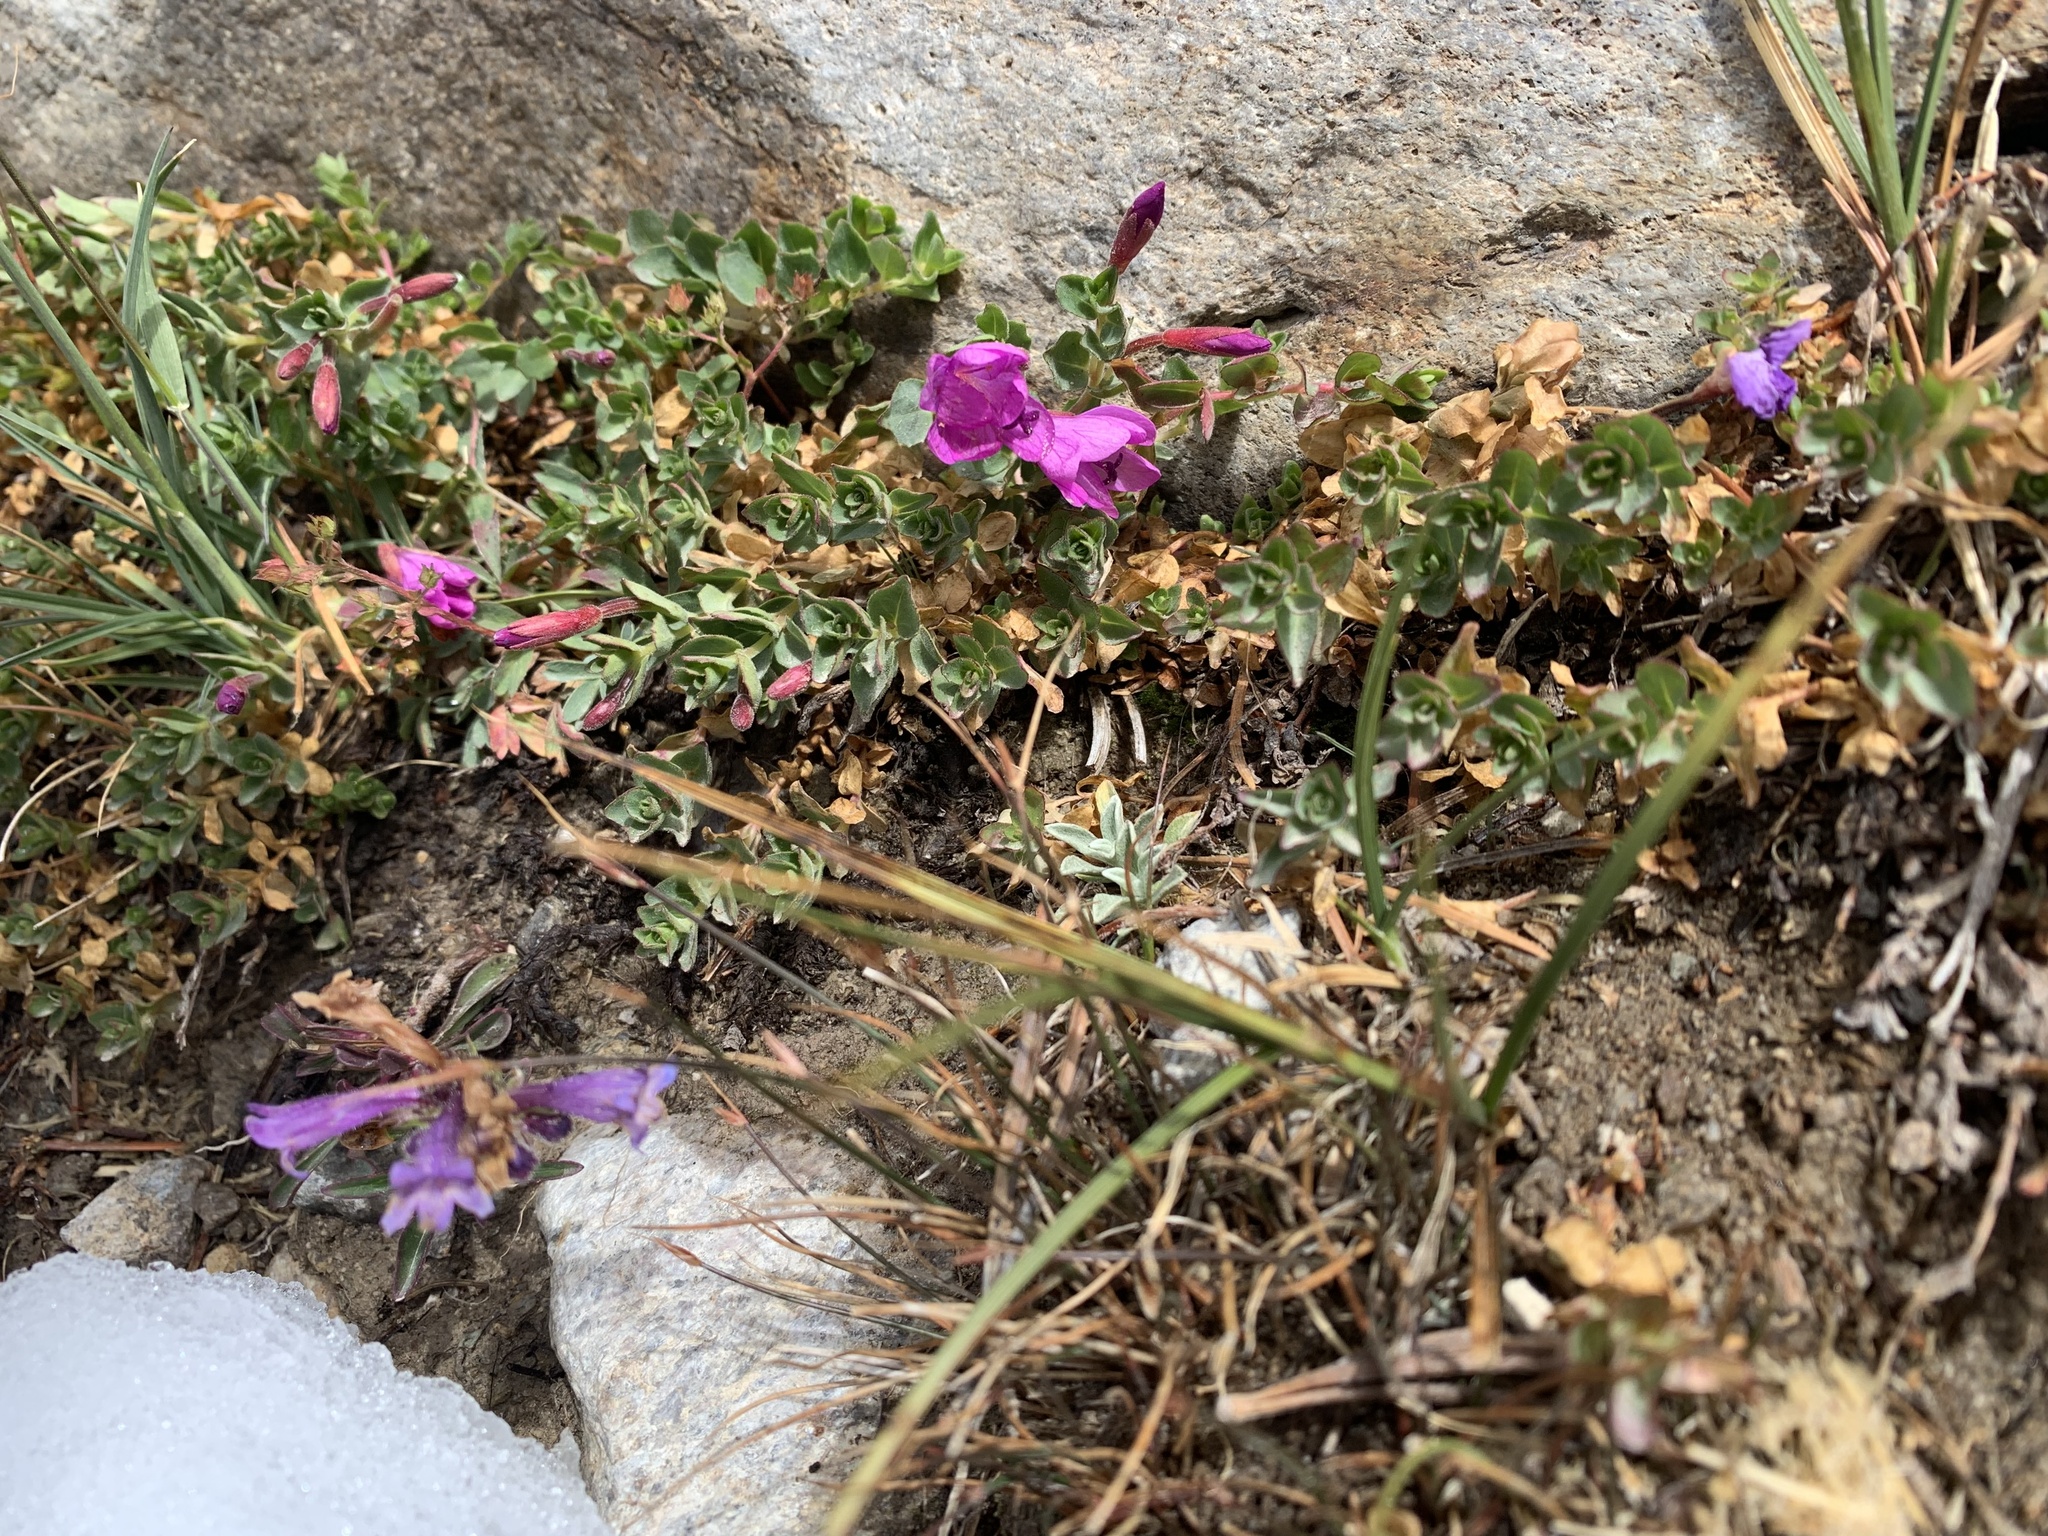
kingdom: Plantae
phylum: Tracheophyta
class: Magnoliopsida
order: Myrtales
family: Onagraceae
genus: Epilobium
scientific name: Epilobium obcordatum
